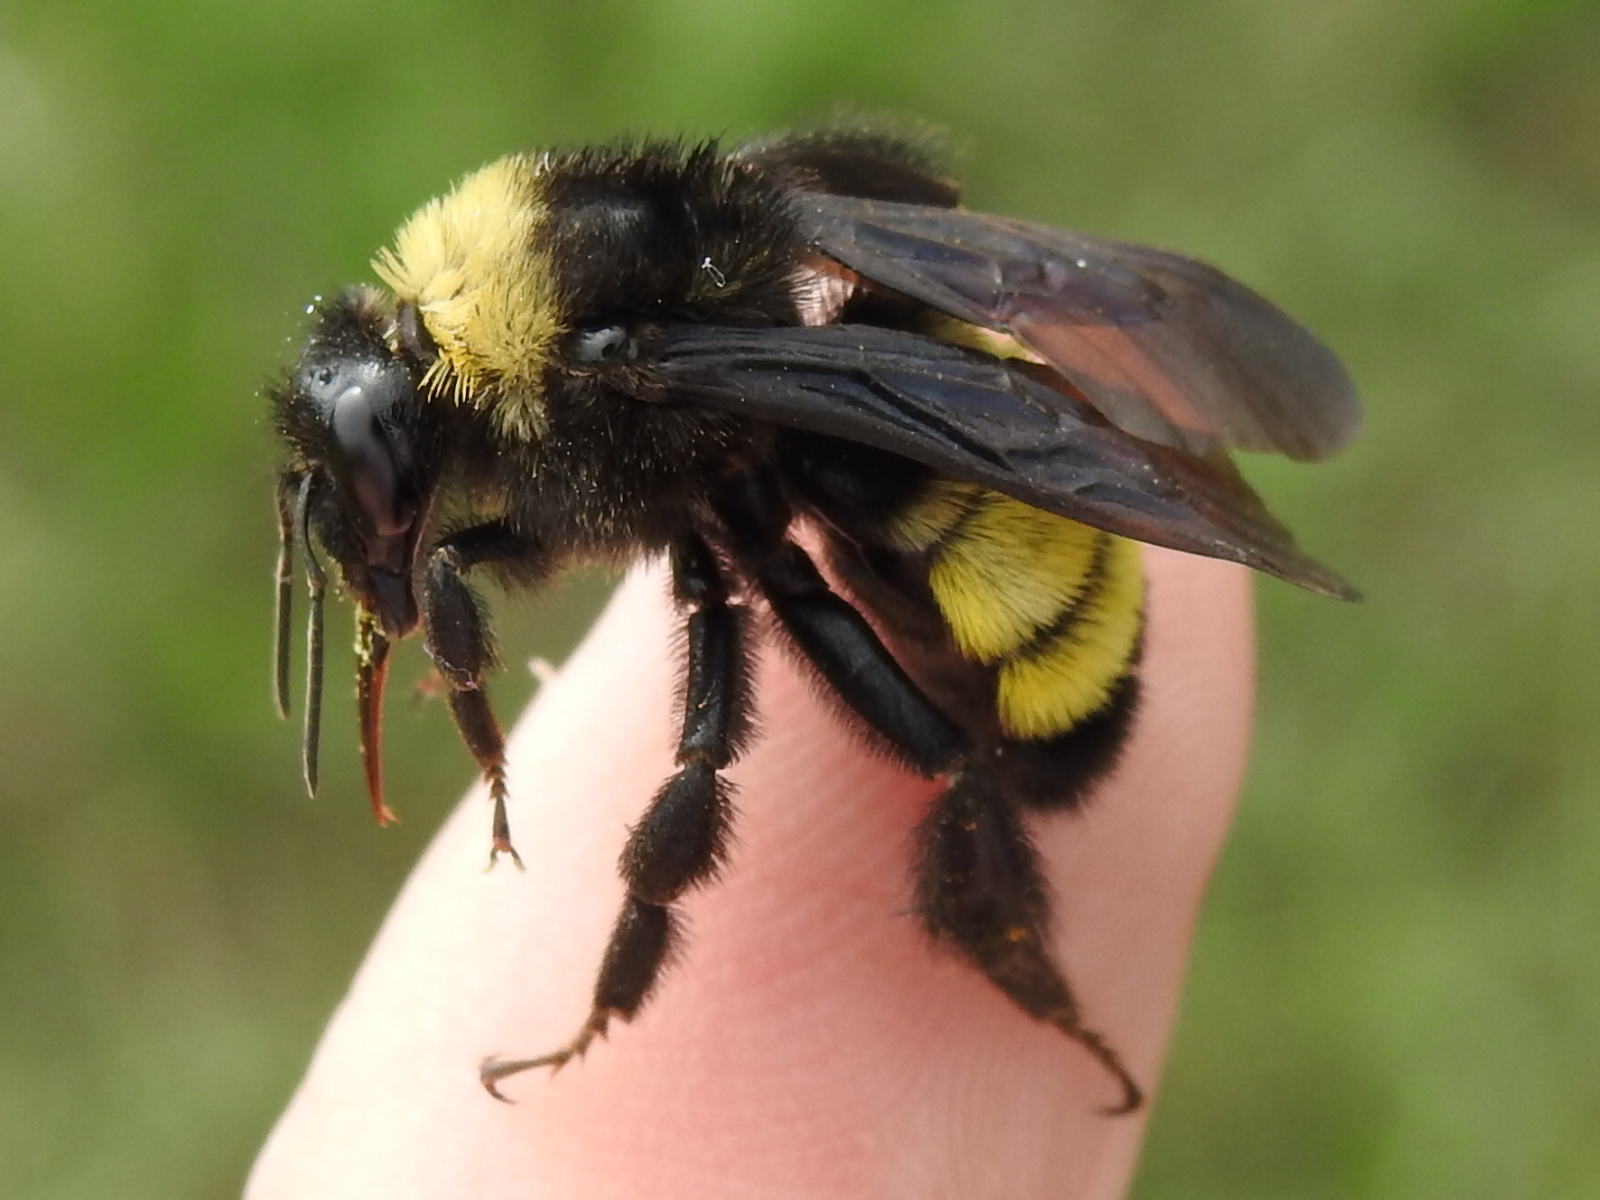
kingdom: Animalia
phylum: Arthropoda
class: Insecta
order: Hymenoptera
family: Apidae
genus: Bombus
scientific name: Bombus pensylvanicus
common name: Bumble bee
